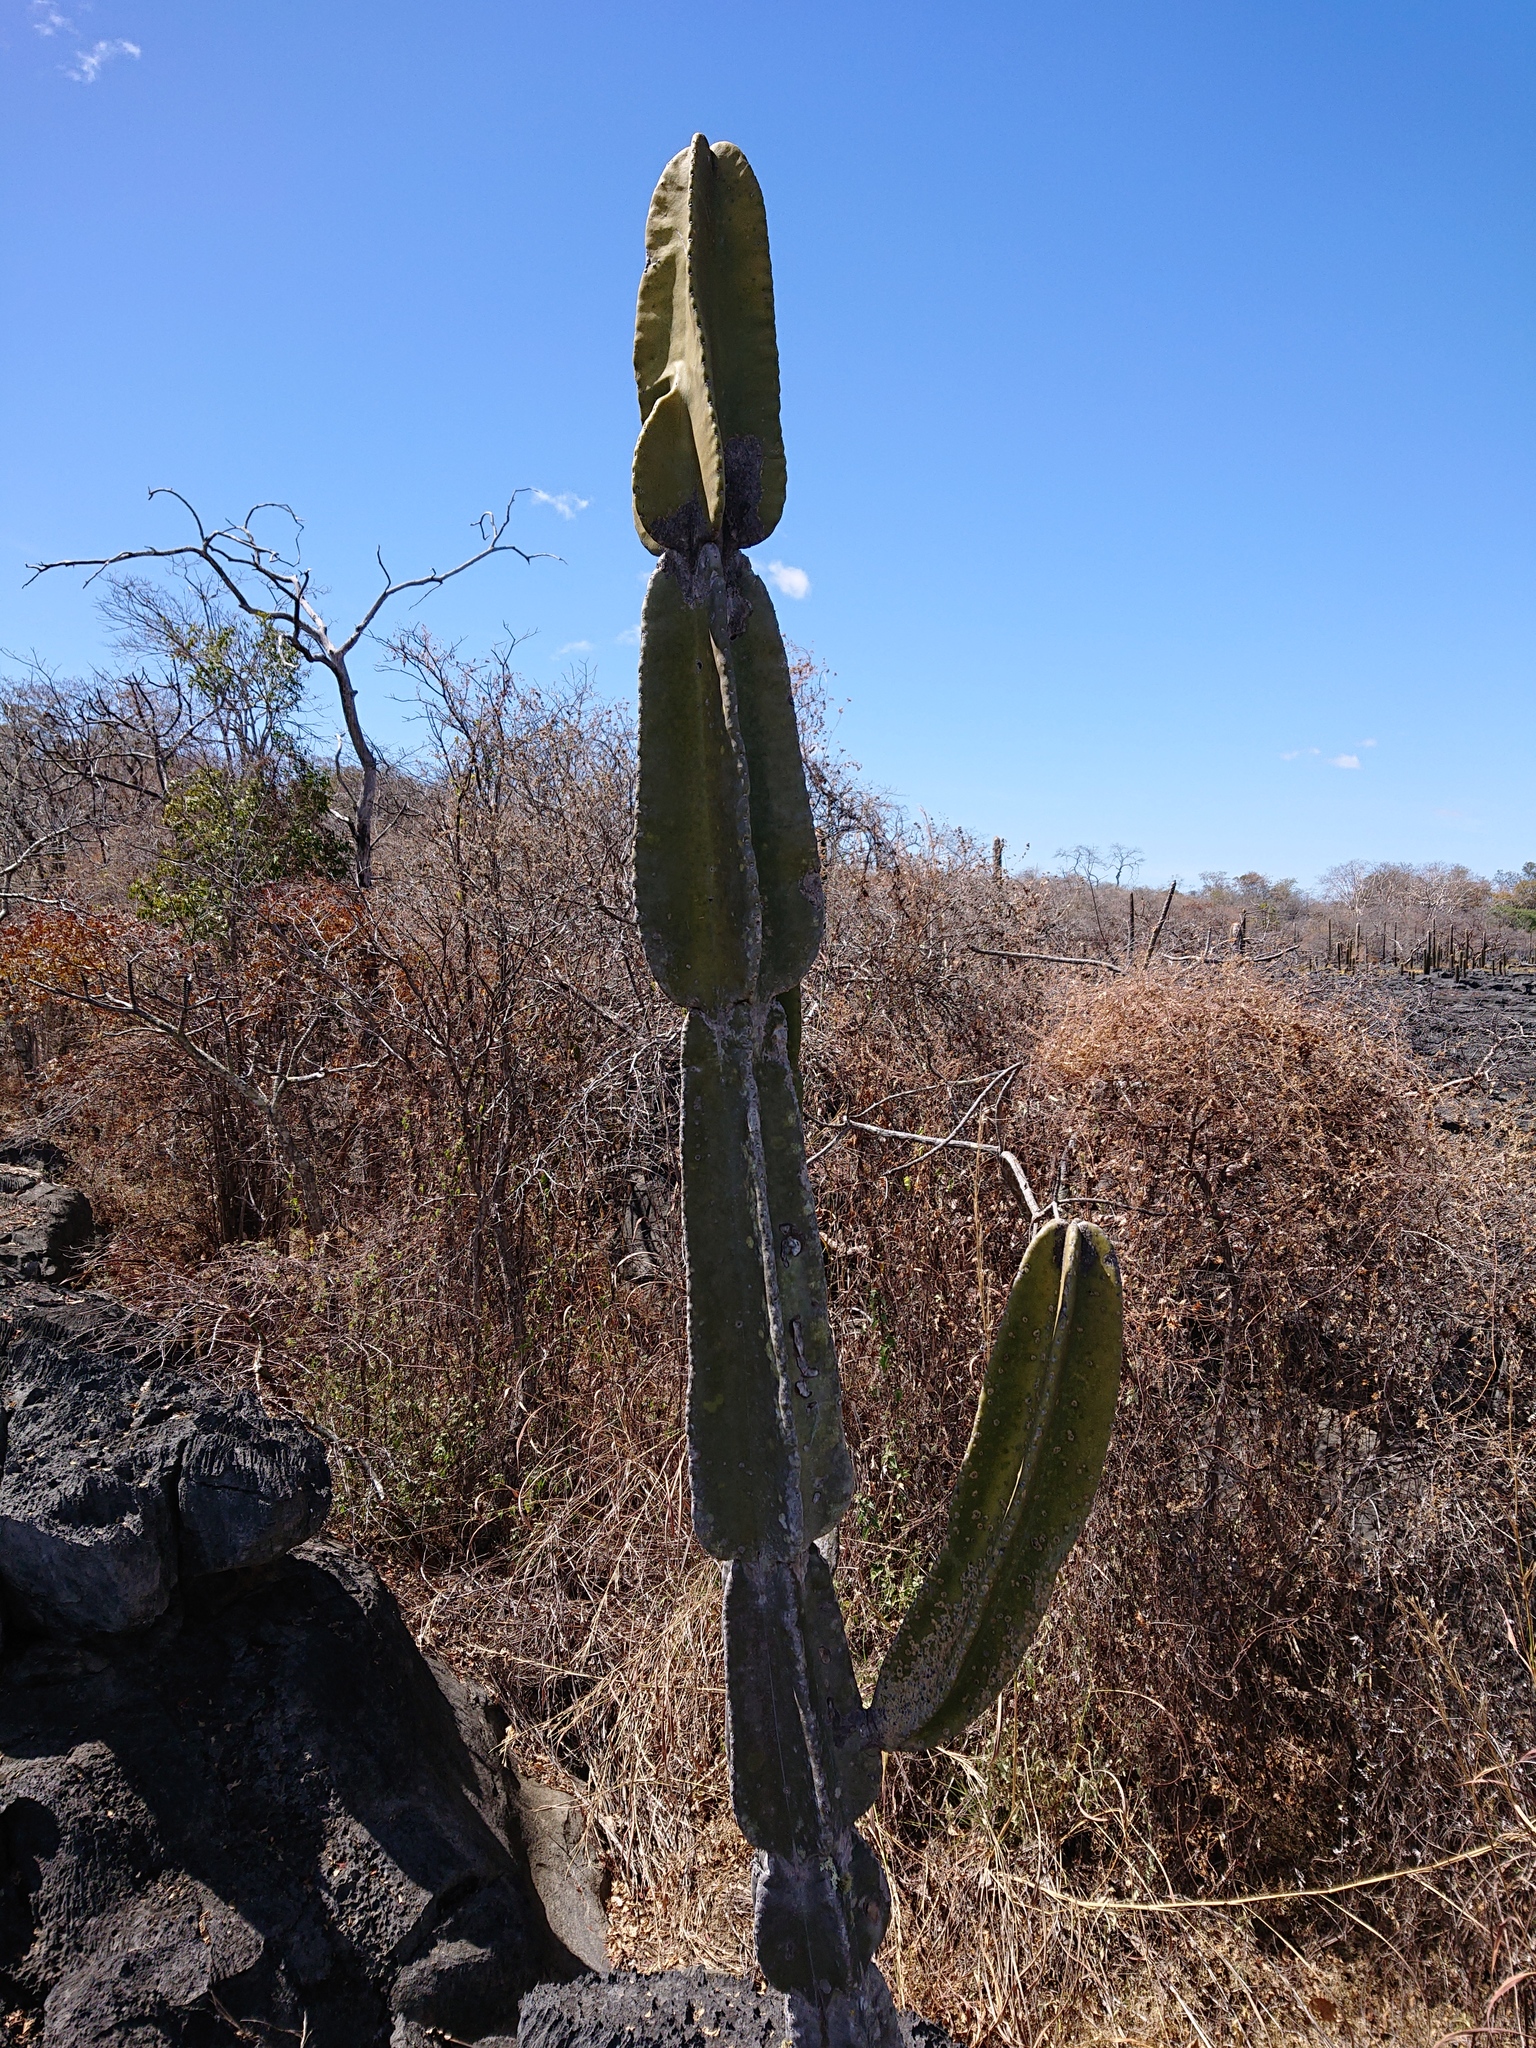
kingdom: Plantae
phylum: Tracheophyta
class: Magnoliopsida
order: Caryophyllales
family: Cactaceae
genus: Cereus
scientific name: Cereus pierre-braunianus
